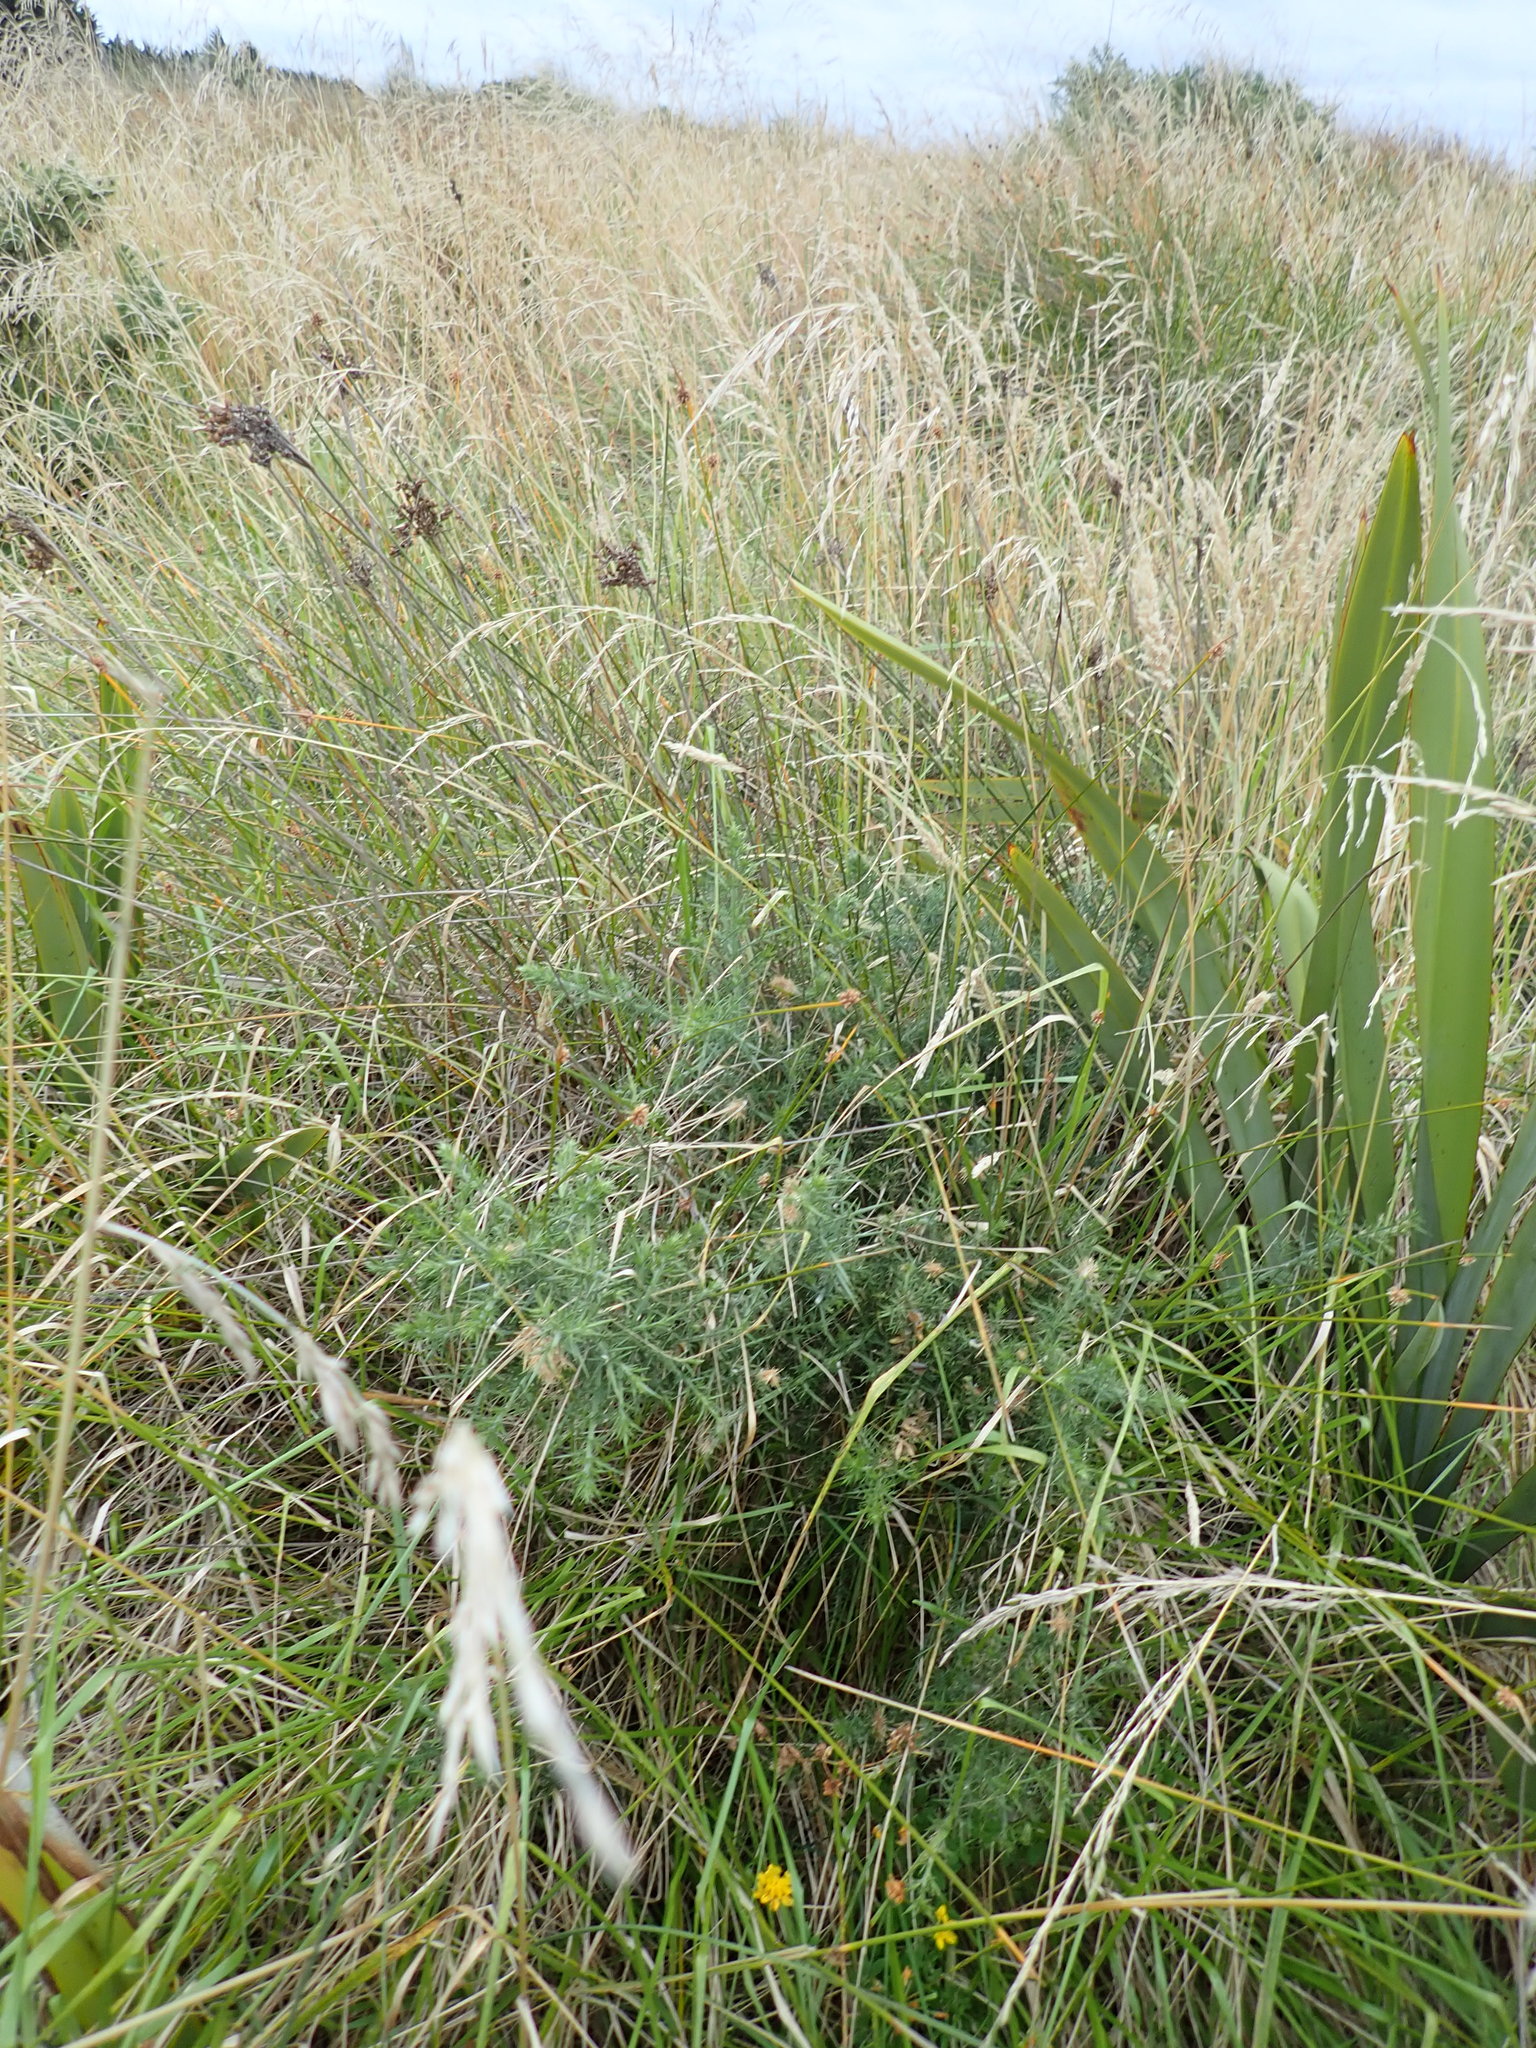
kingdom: Plantae
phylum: Tracheophyta
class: Magnoliopsida
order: Fabales
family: Fabaceae
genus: Ulex
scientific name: Ulex europaeus
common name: Common gorse
